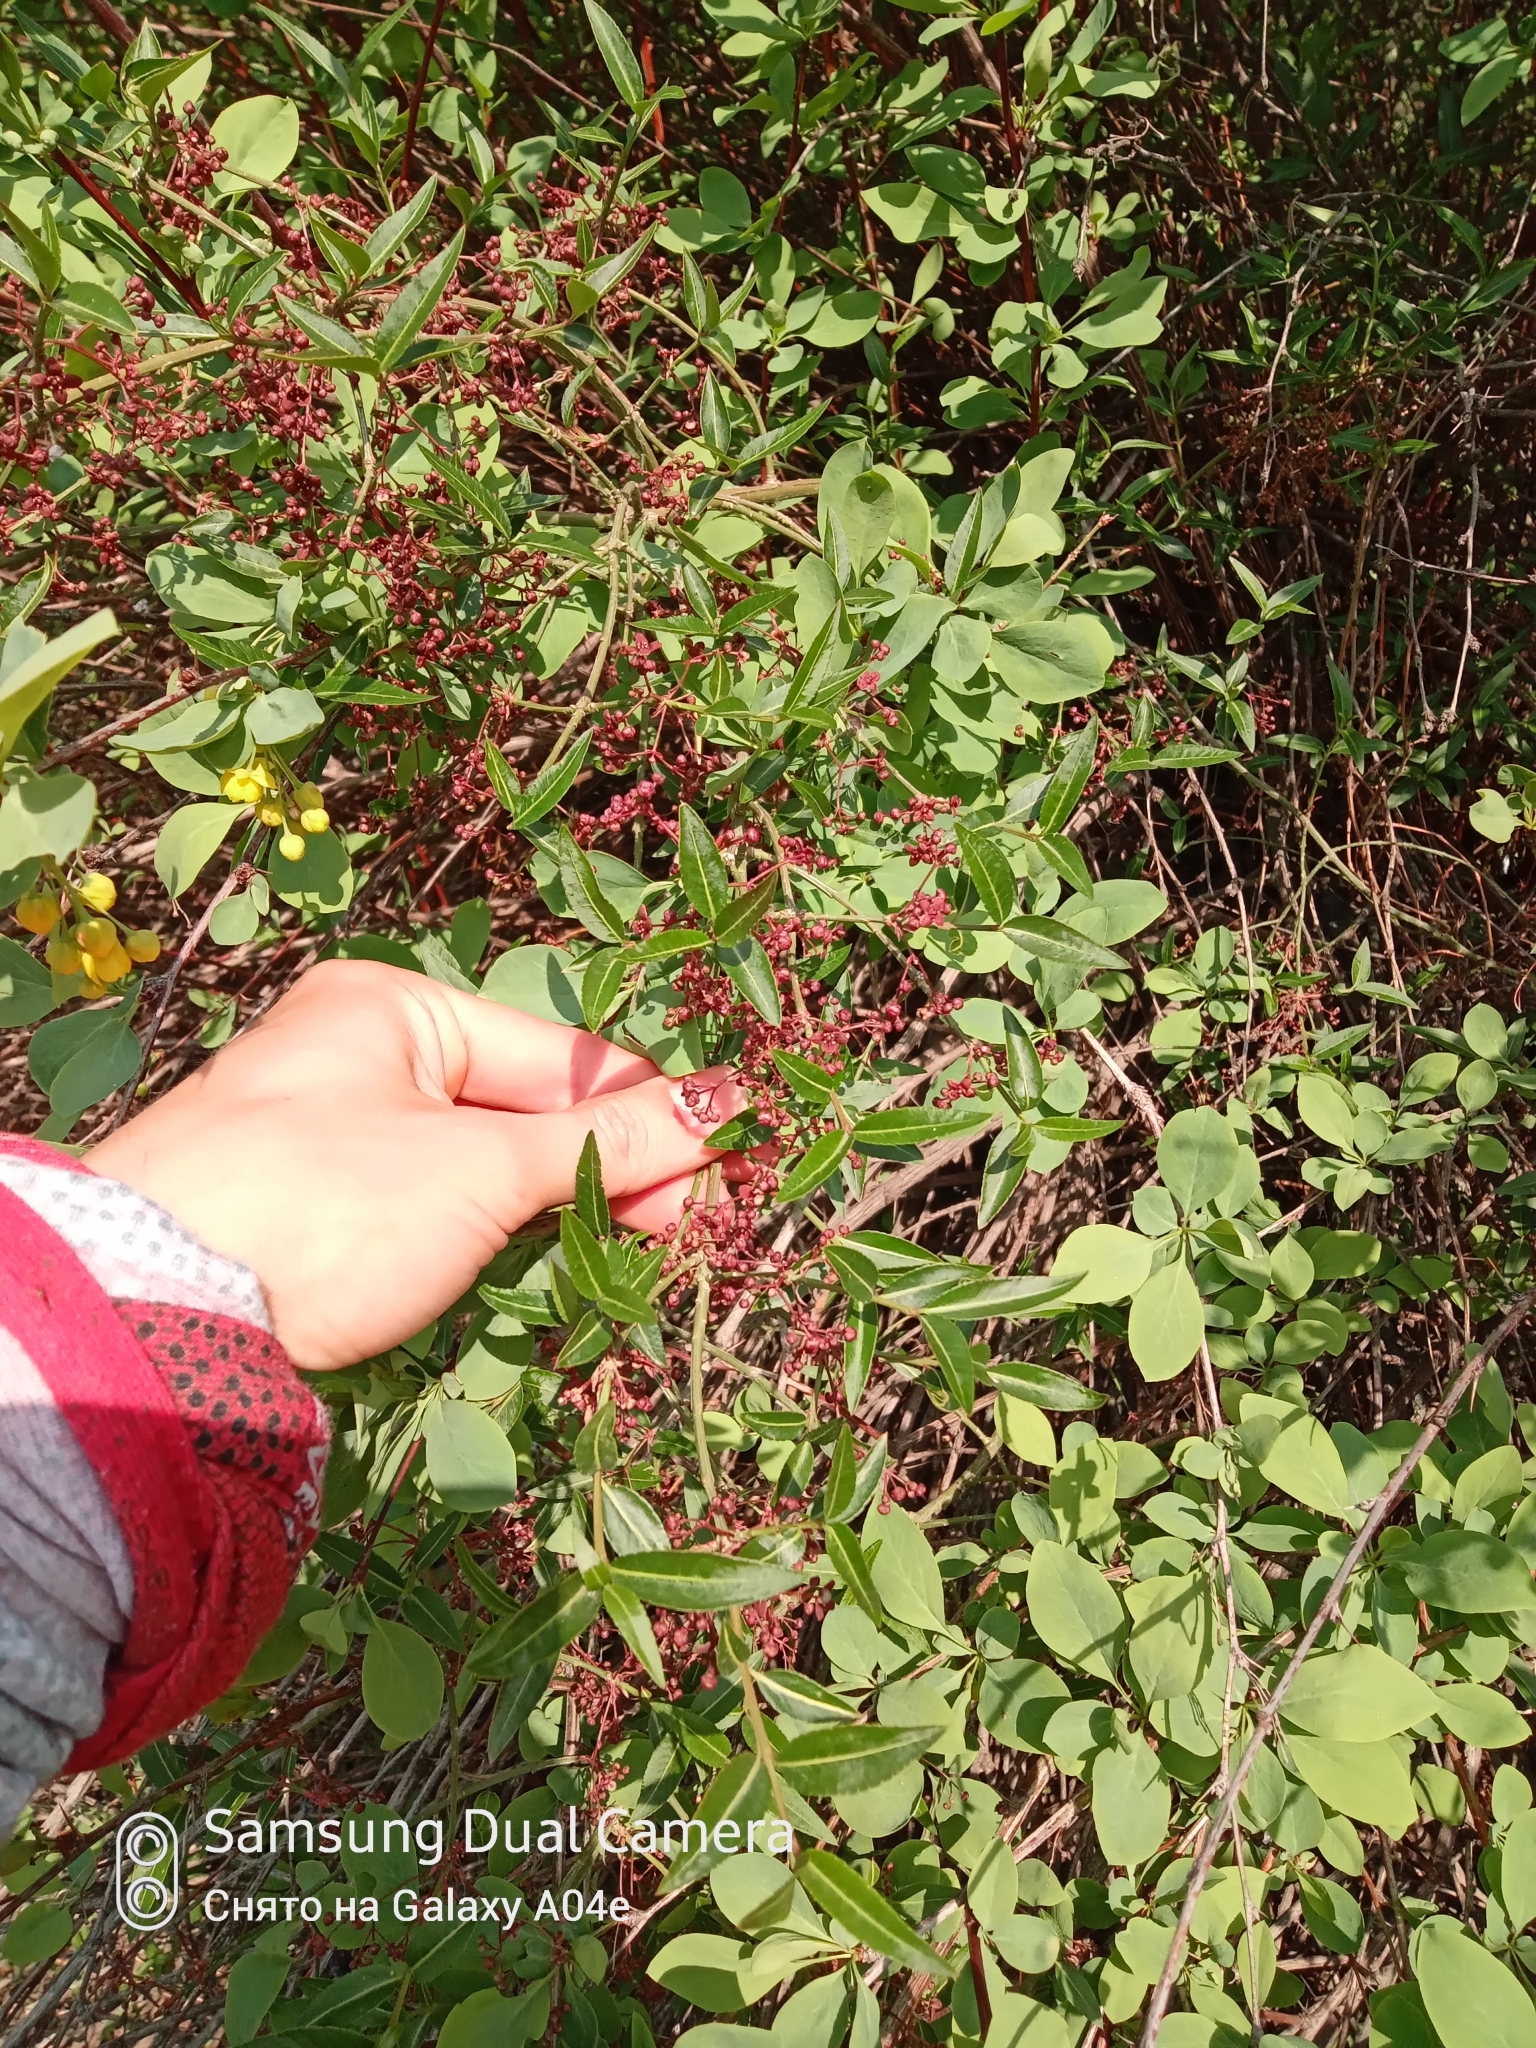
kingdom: Plantae
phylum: Tracheophyta
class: Magnoliopsida
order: Celastrales
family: Celastraceae
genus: Euonymus
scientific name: Euonymus semenovii
